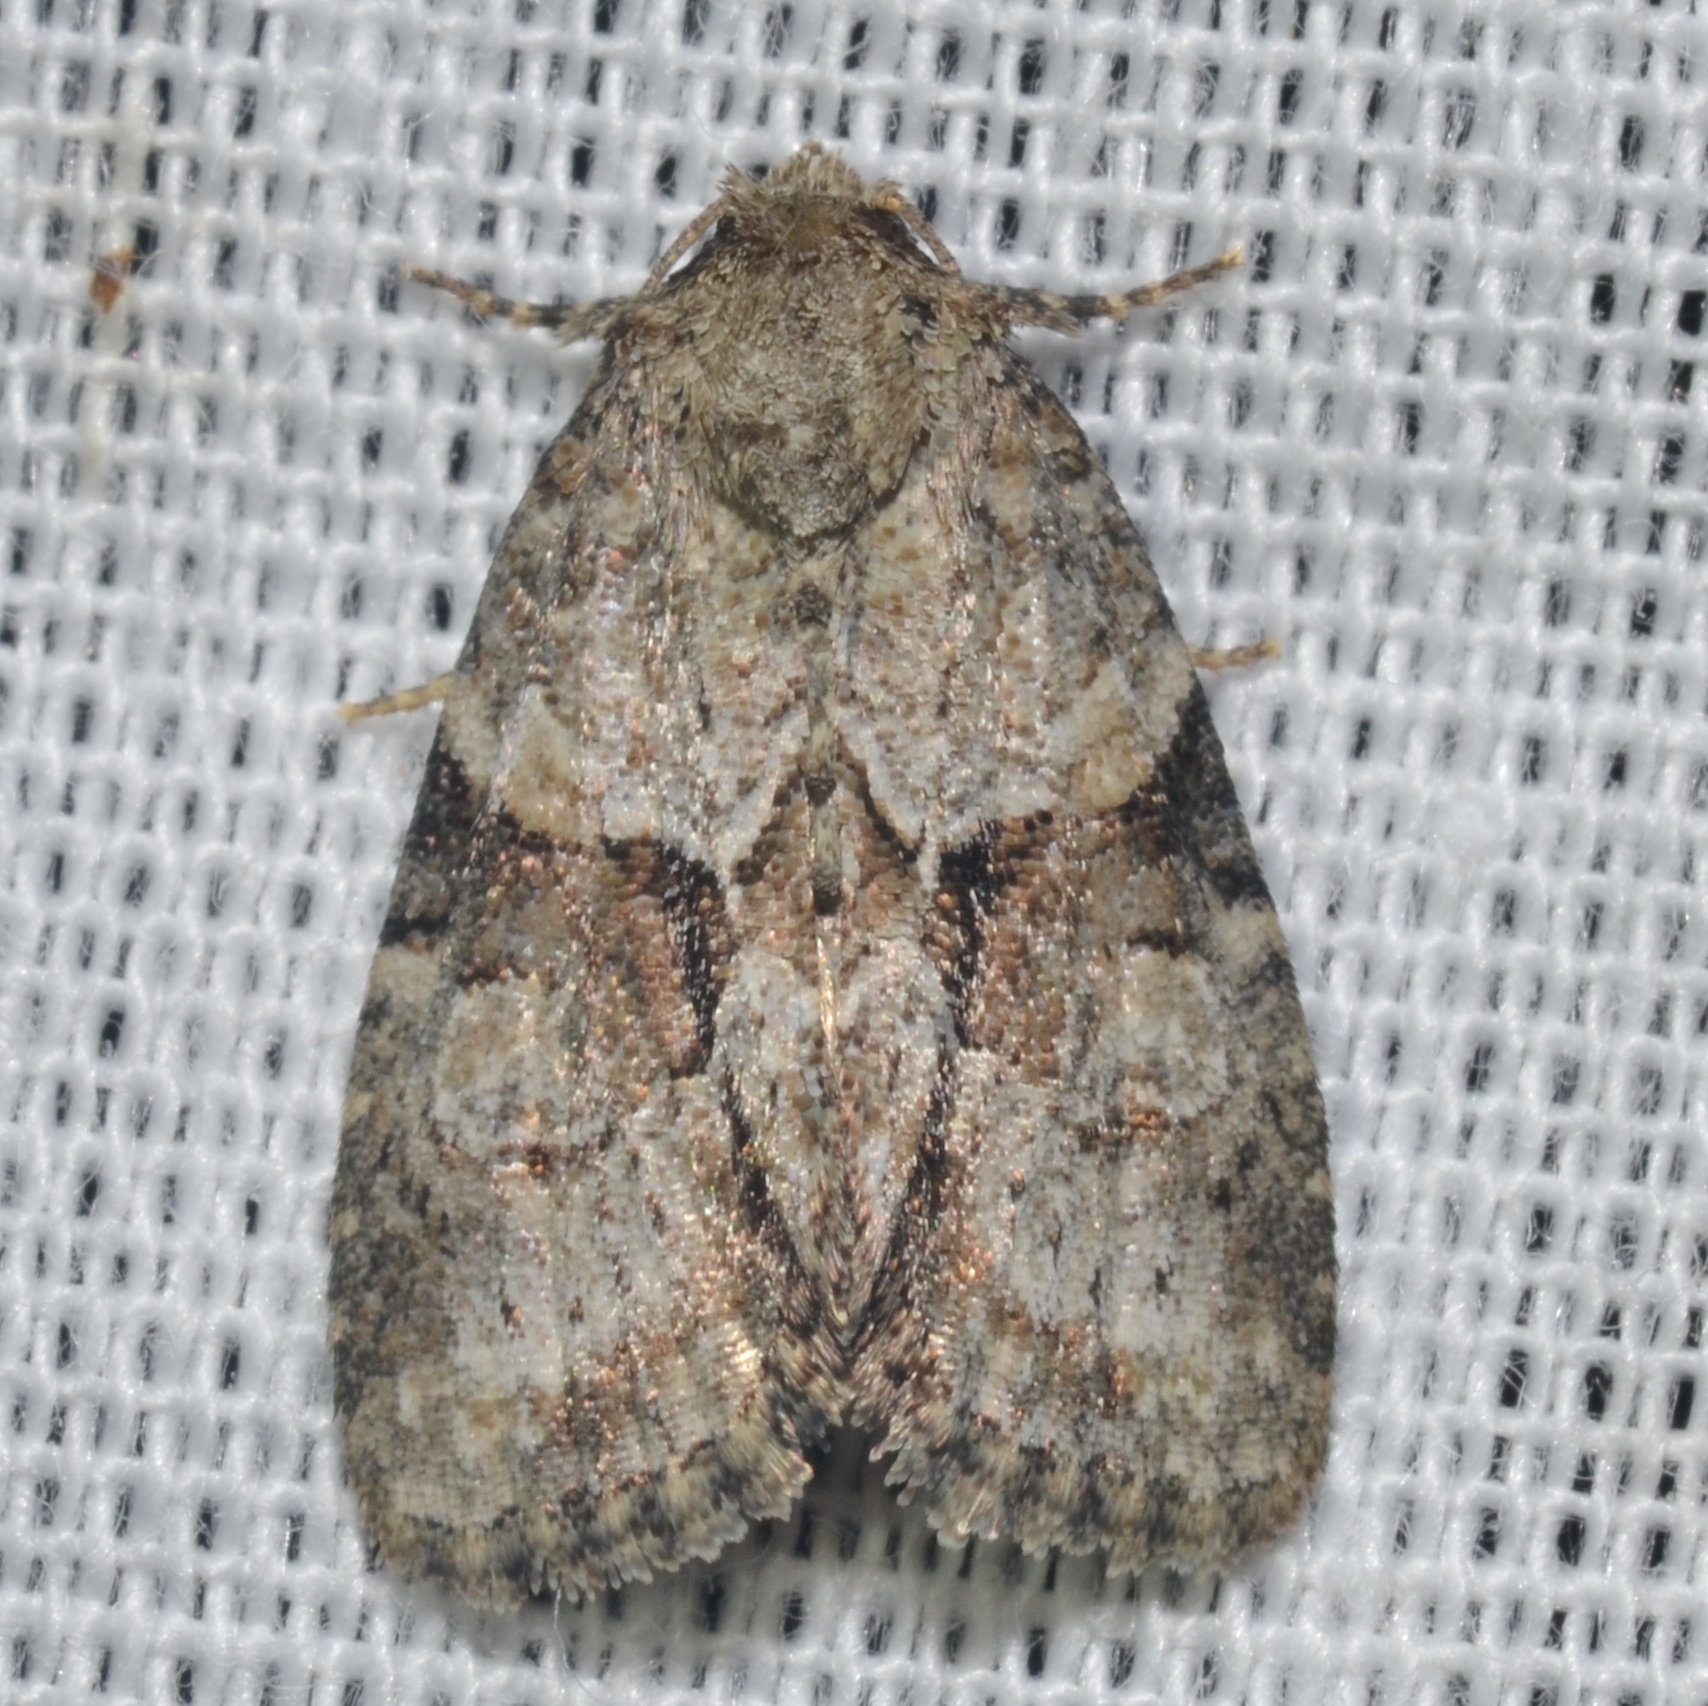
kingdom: Animalia
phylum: Arthropoda
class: Insecta
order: Lepidoptera
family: Noctuidae
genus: Neoligia
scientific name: Neoligia exhausta
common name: Exhausted brocade
